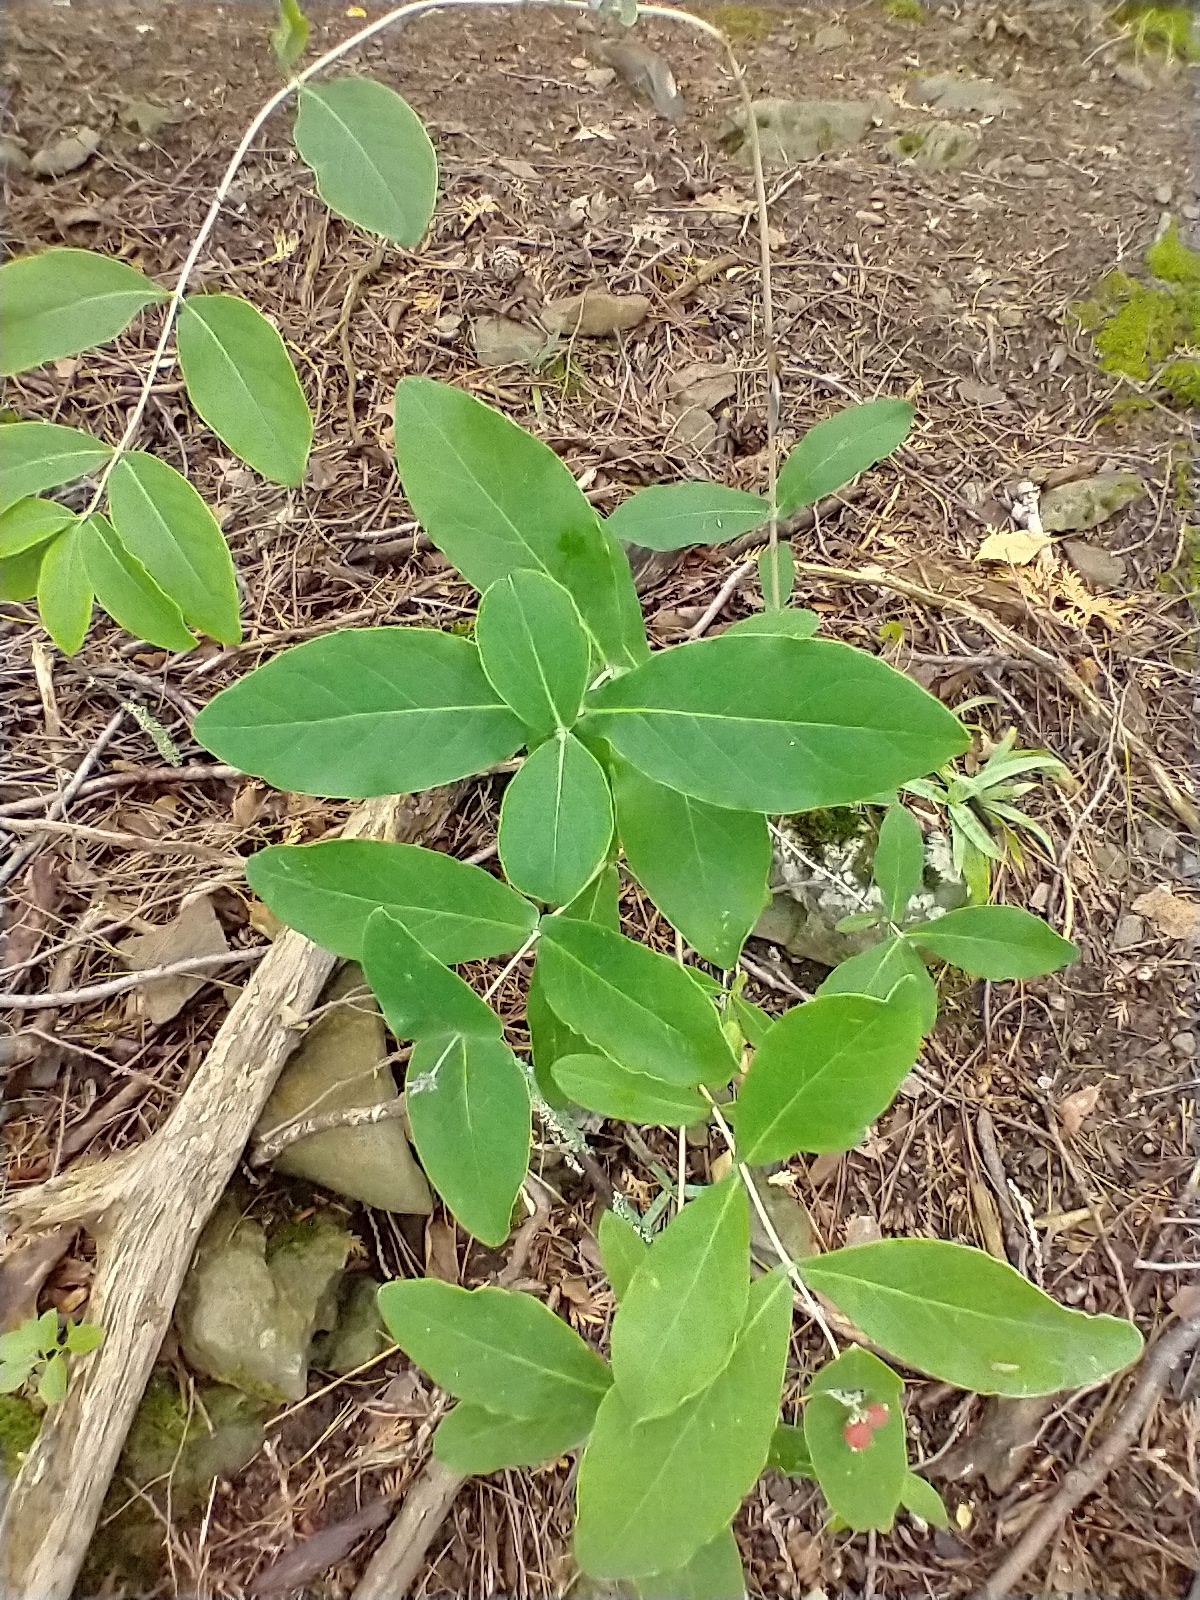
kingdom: Plantae
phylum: Tracheophyta
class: Magnoliopsida
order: Dipsacales
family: Caprifoliaceae
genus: Lonicera
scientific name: Lonicera dioica
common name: Limber honeysuckle
